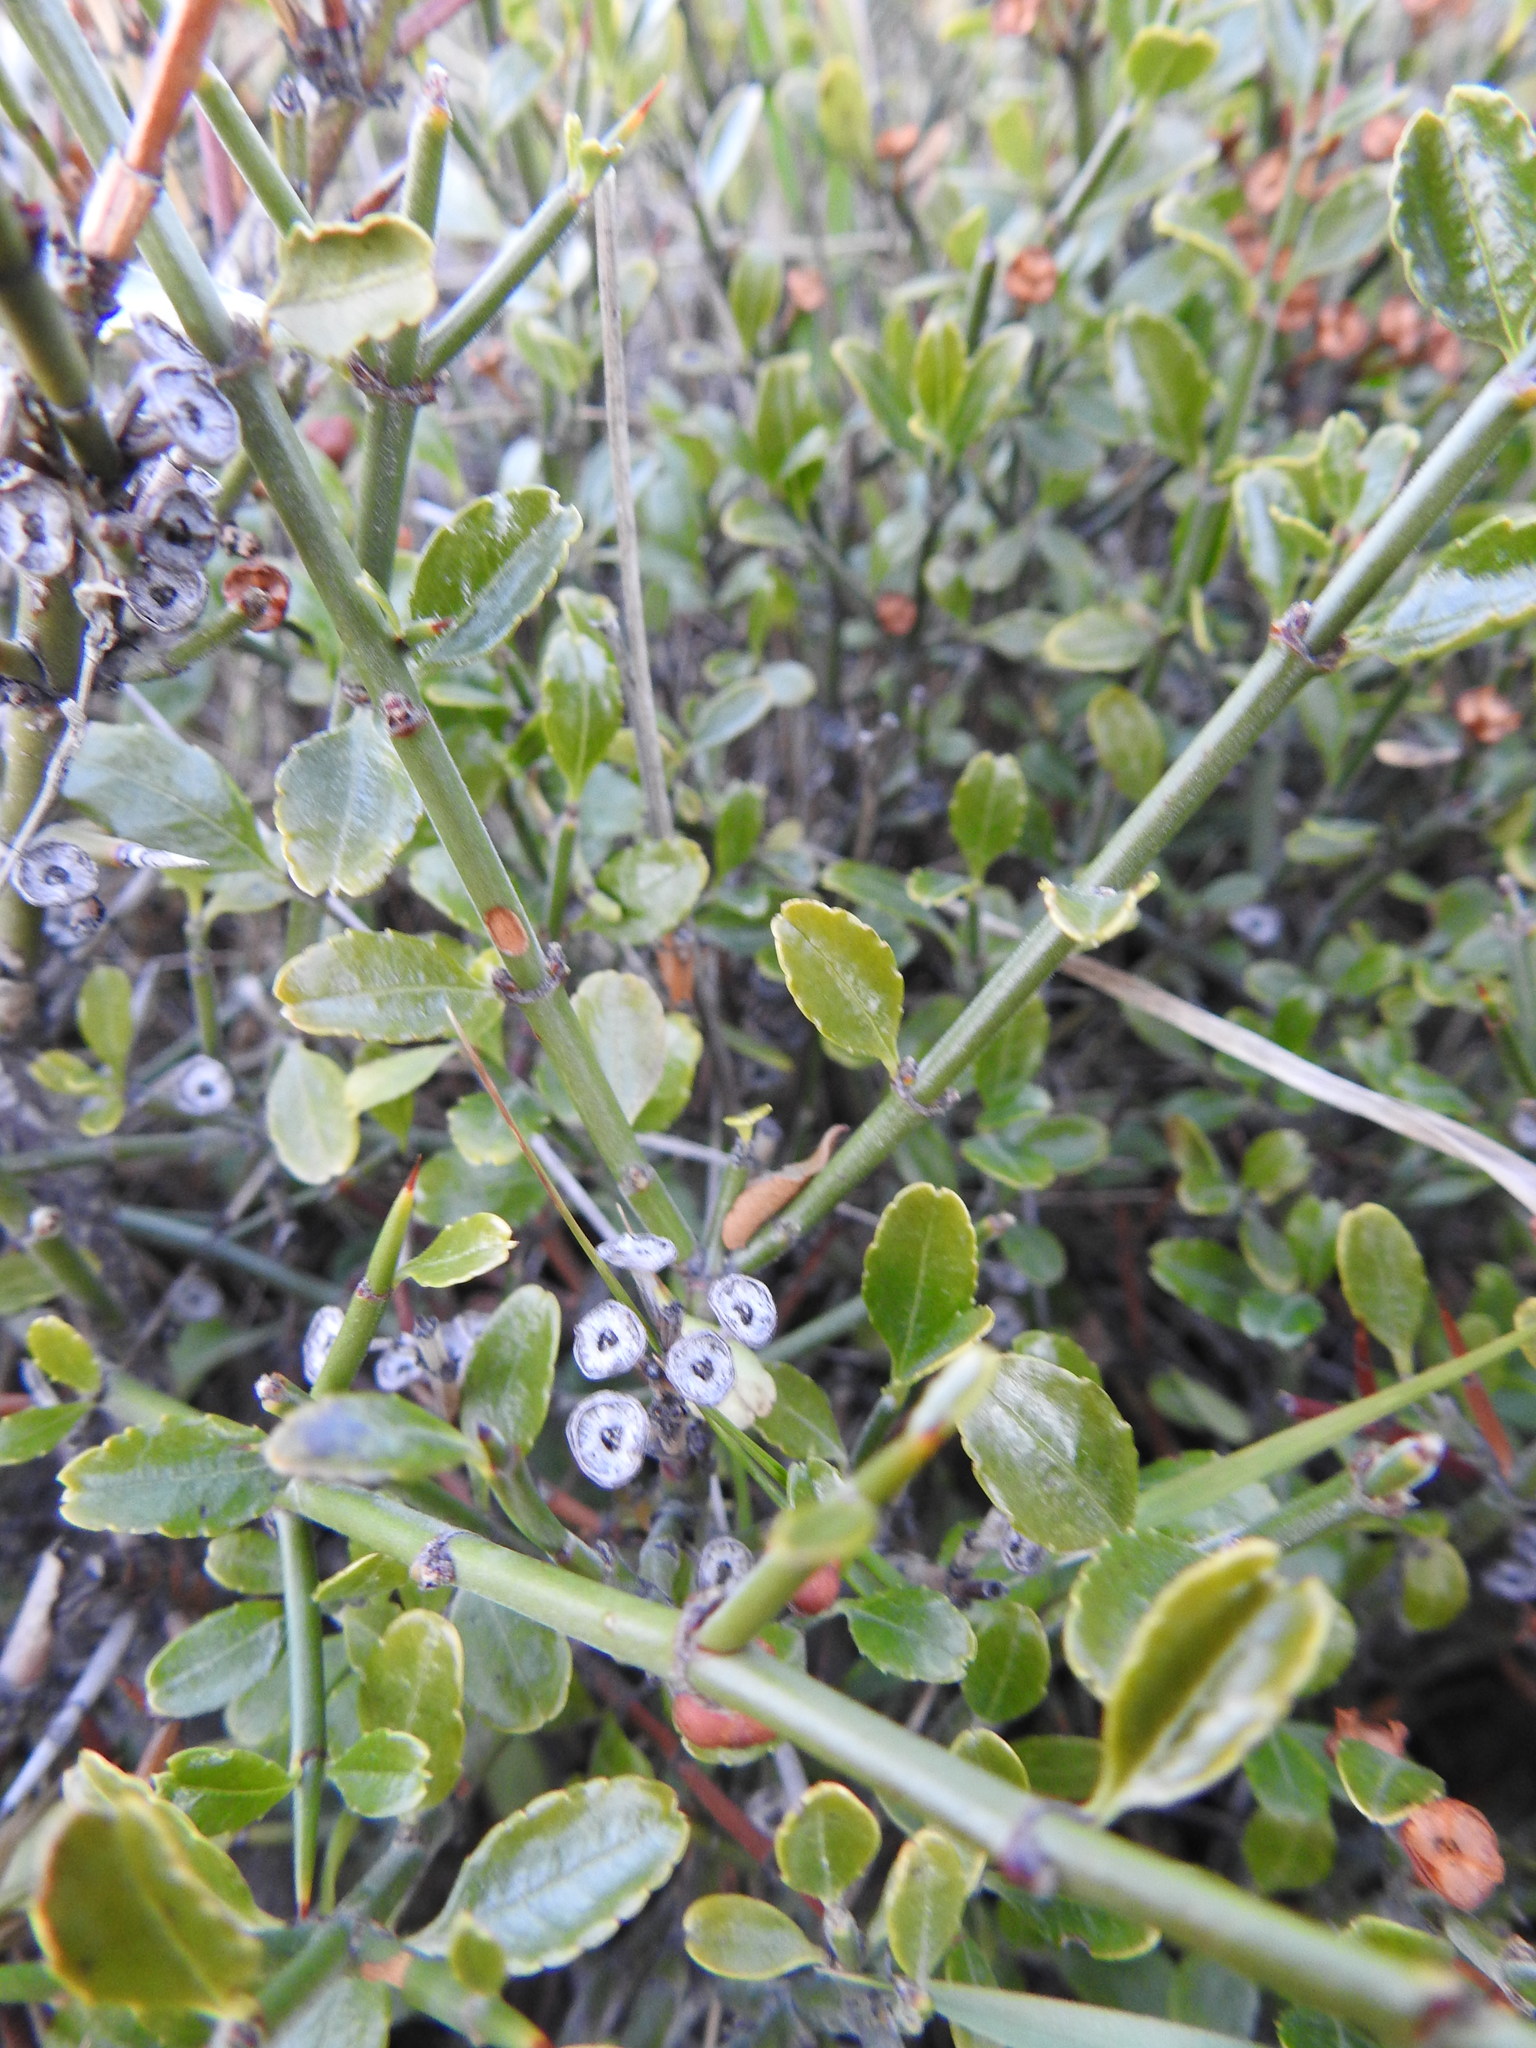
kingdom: Plantae
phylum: Tracheophyta
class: Magnoliopsida
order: Rosales
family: Rhamnaceae
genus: Discaria
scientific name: Discaria chacaye
